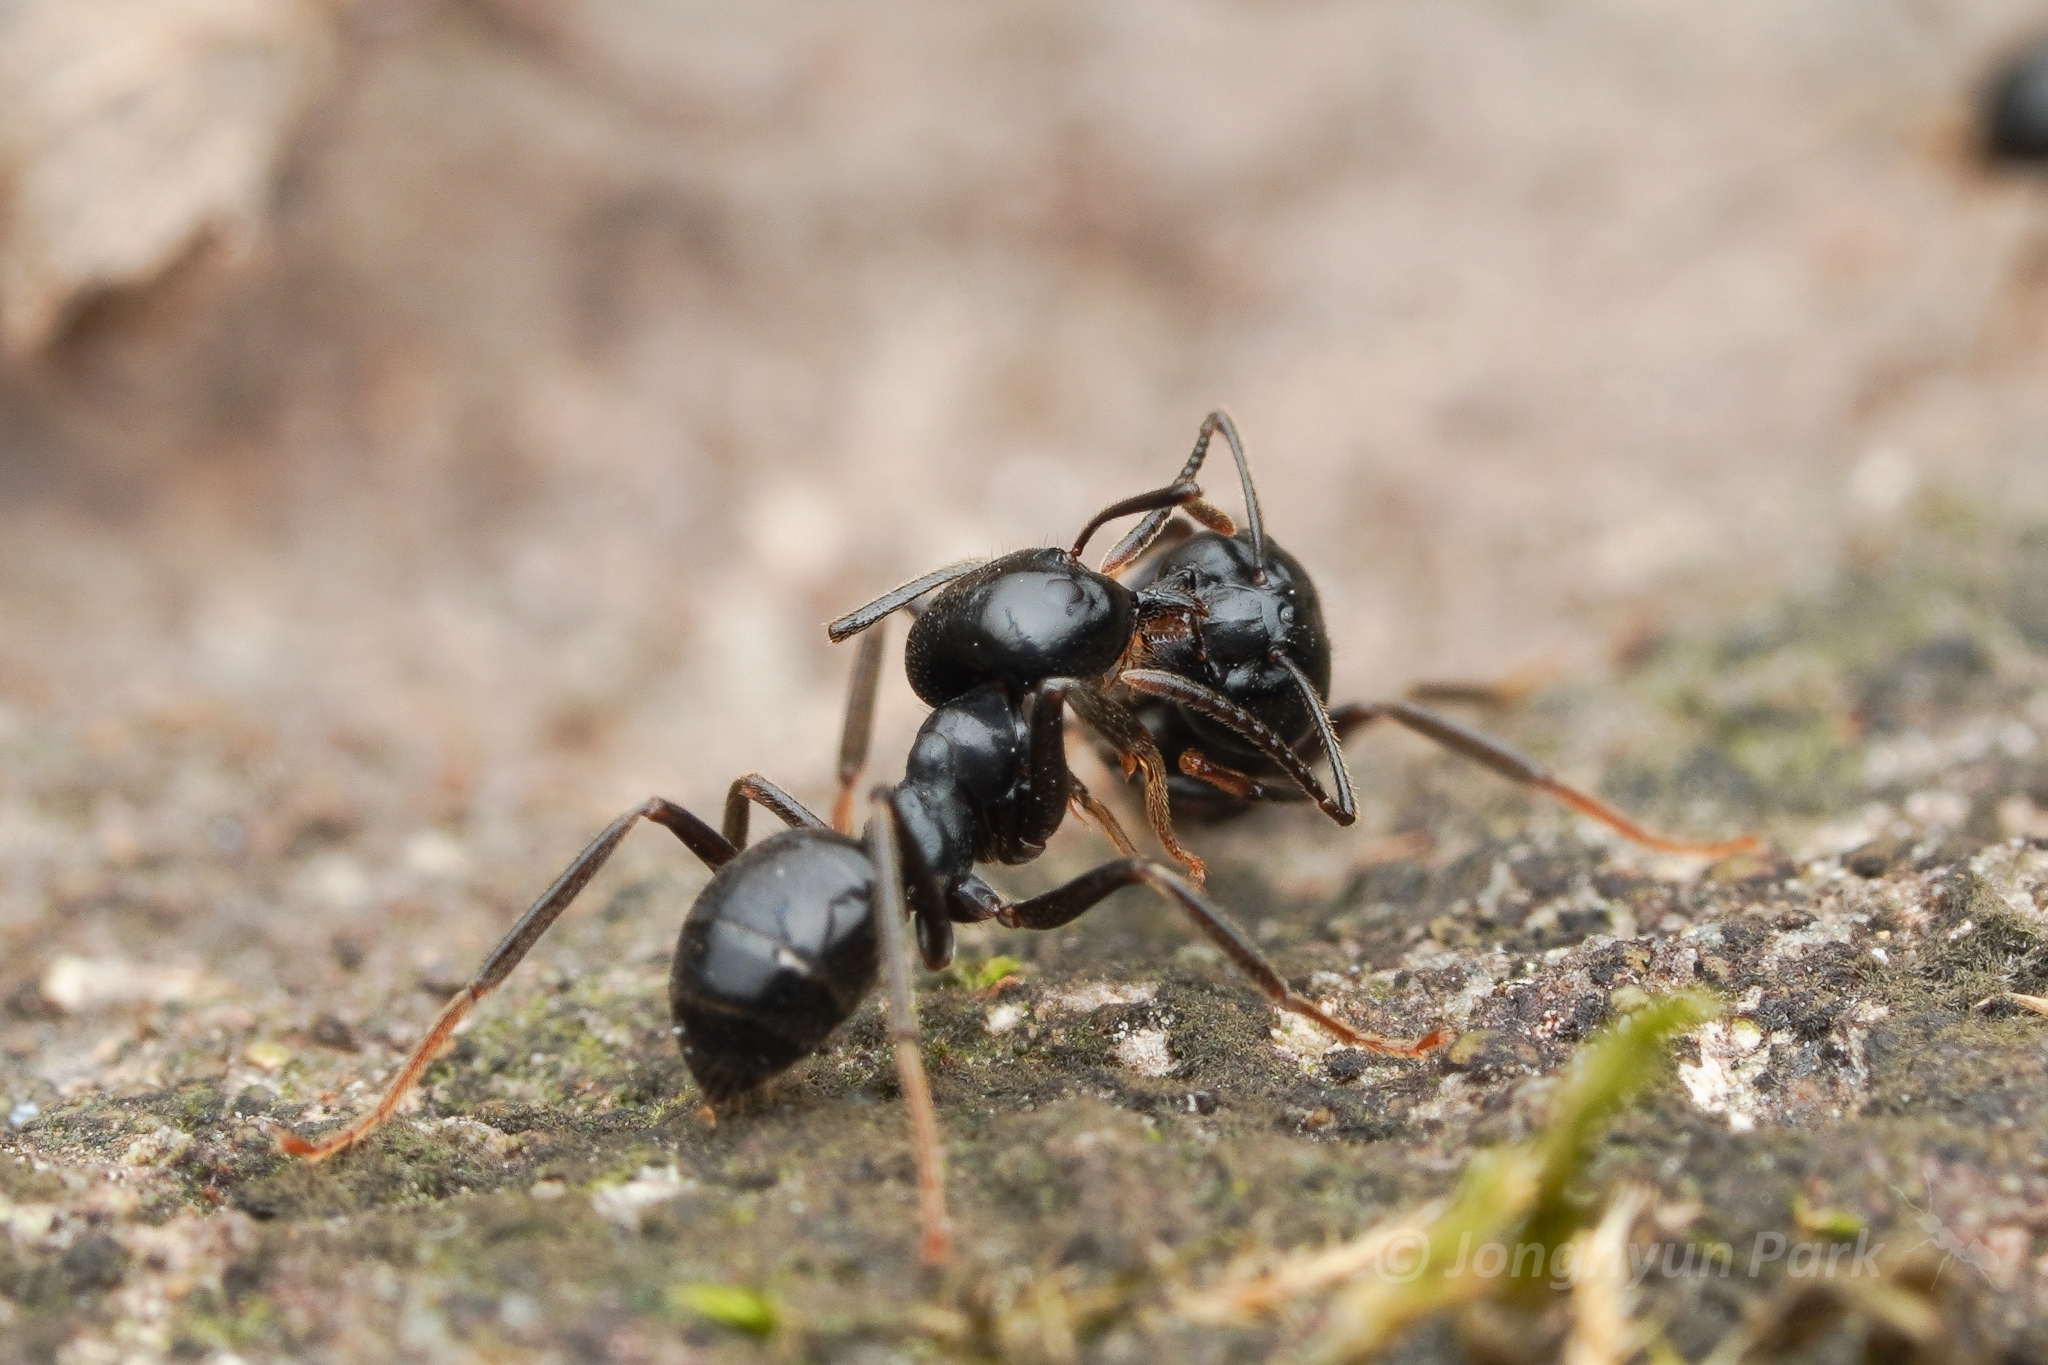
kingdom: Animalia
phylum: Arthropoda
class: Insecta
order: Hymenoptera
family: Formicidae
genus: Lasius
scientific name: Lasius spathepus
